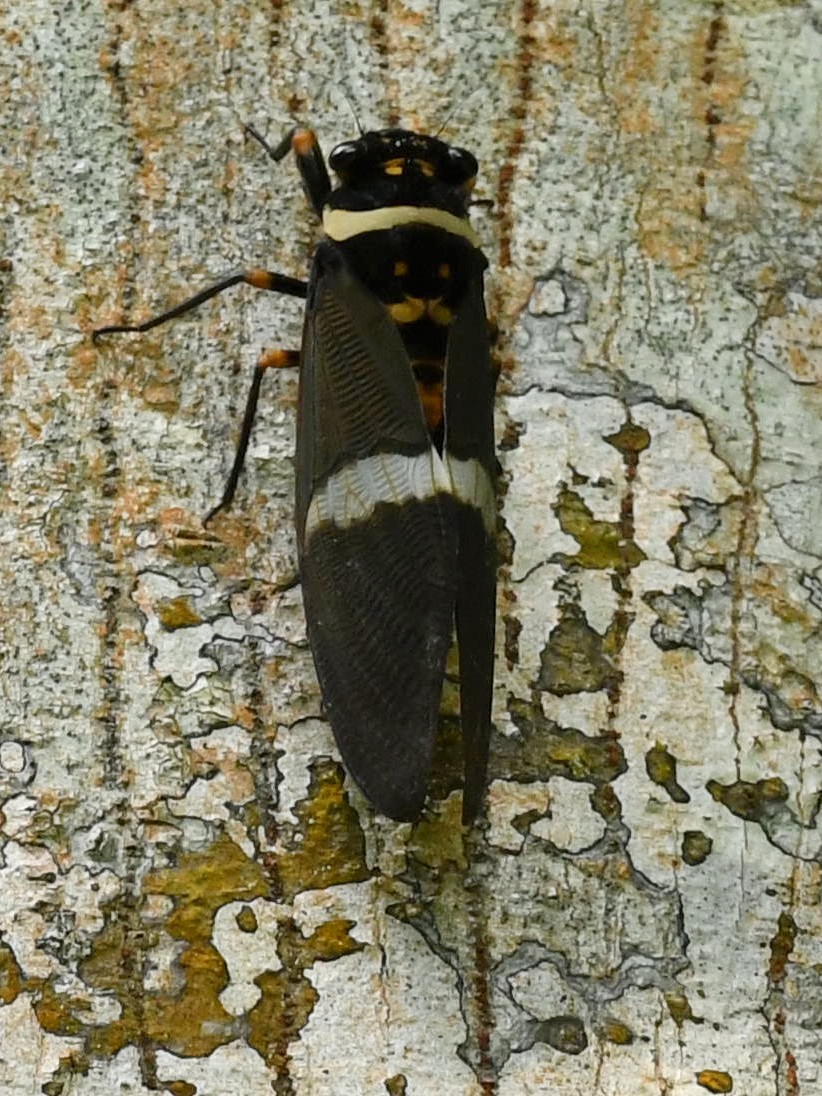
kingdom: Animalia
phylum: Arthropoda
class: Insecta
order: Hemiptera
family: Cicadidae
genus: Tosena
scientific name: Tosena fasciata
